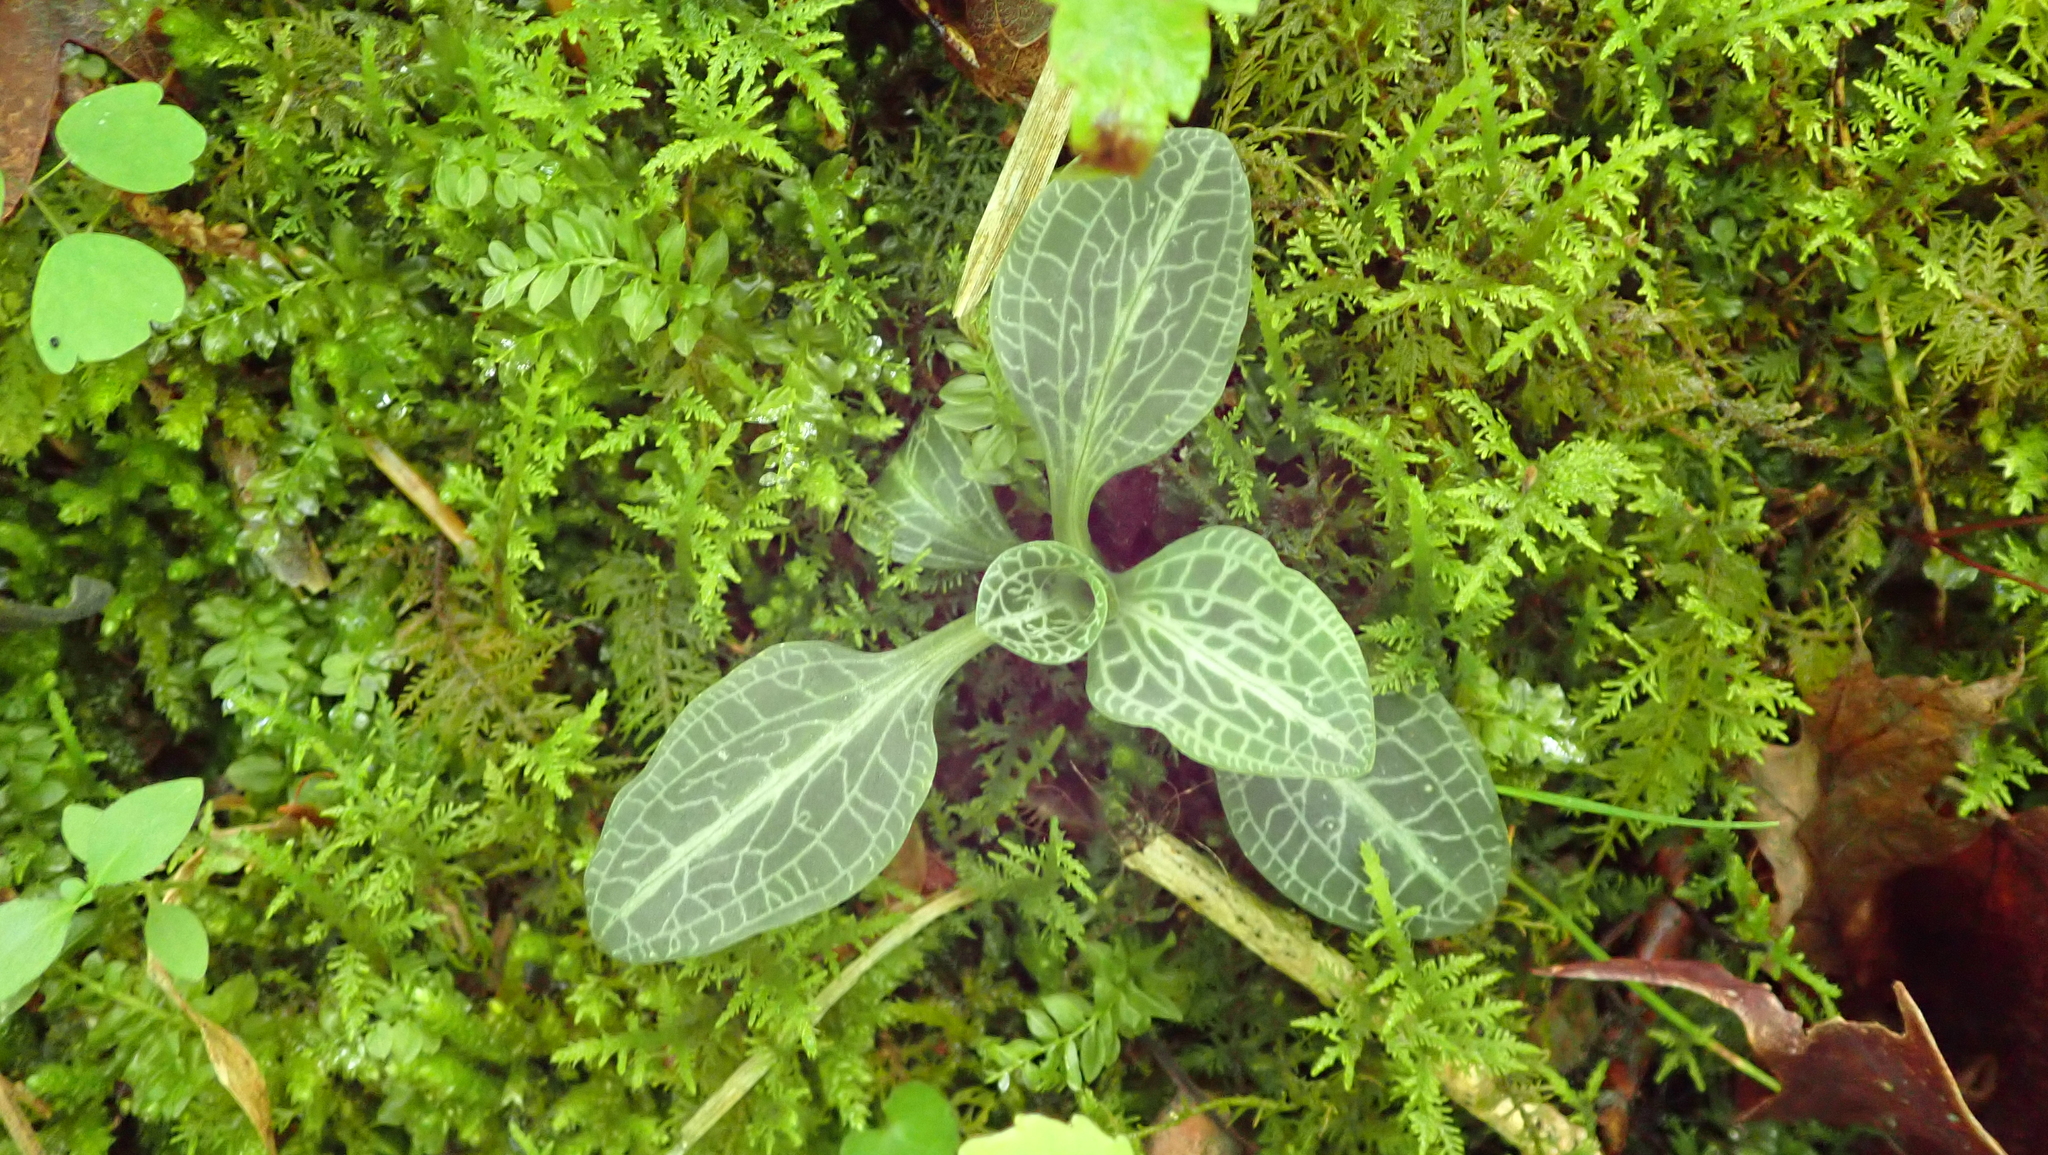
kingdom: Plantae
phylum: Tracheophyta
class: Liliopsida
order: Asparagales
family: Orchidaceae
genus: Goodyera
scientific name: Goodyera pubescens
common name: Downy rattlesnake-plantain
